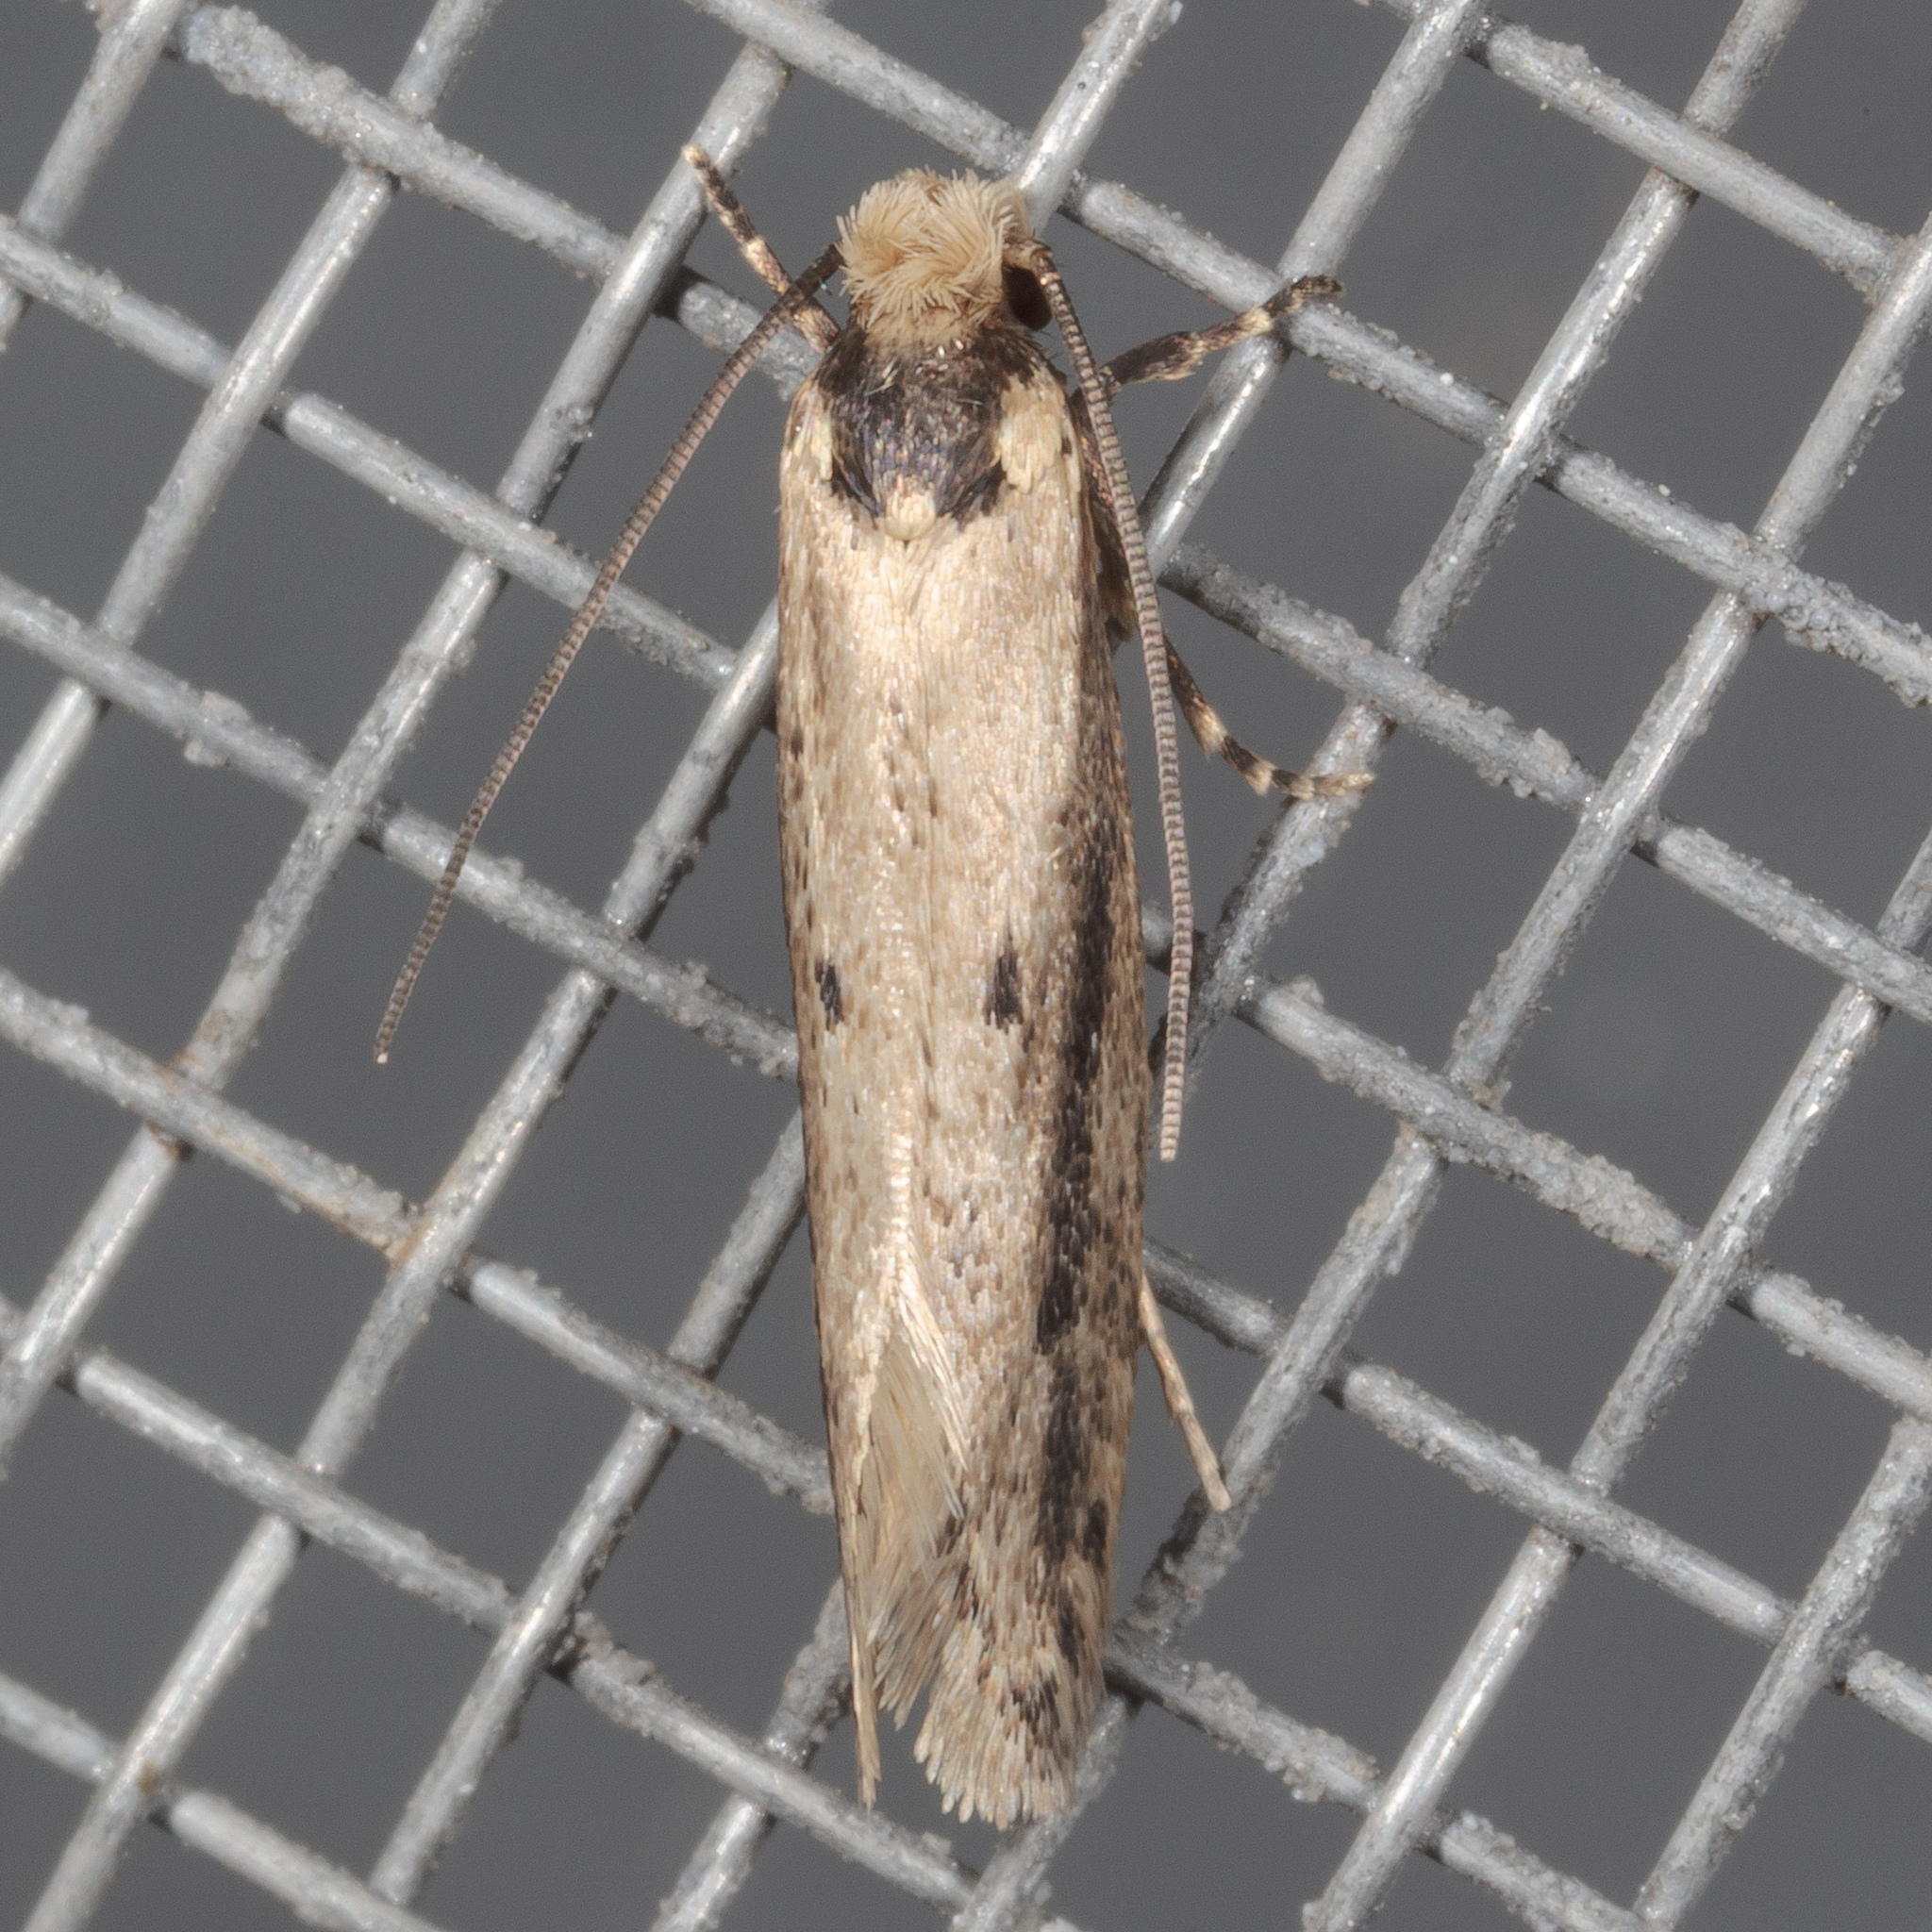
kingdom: Animalia
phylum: Arthropoda
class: Insecta
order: Lepidoptera
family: Tineidae
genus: Tinea
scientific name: Tinea apicimaculella
